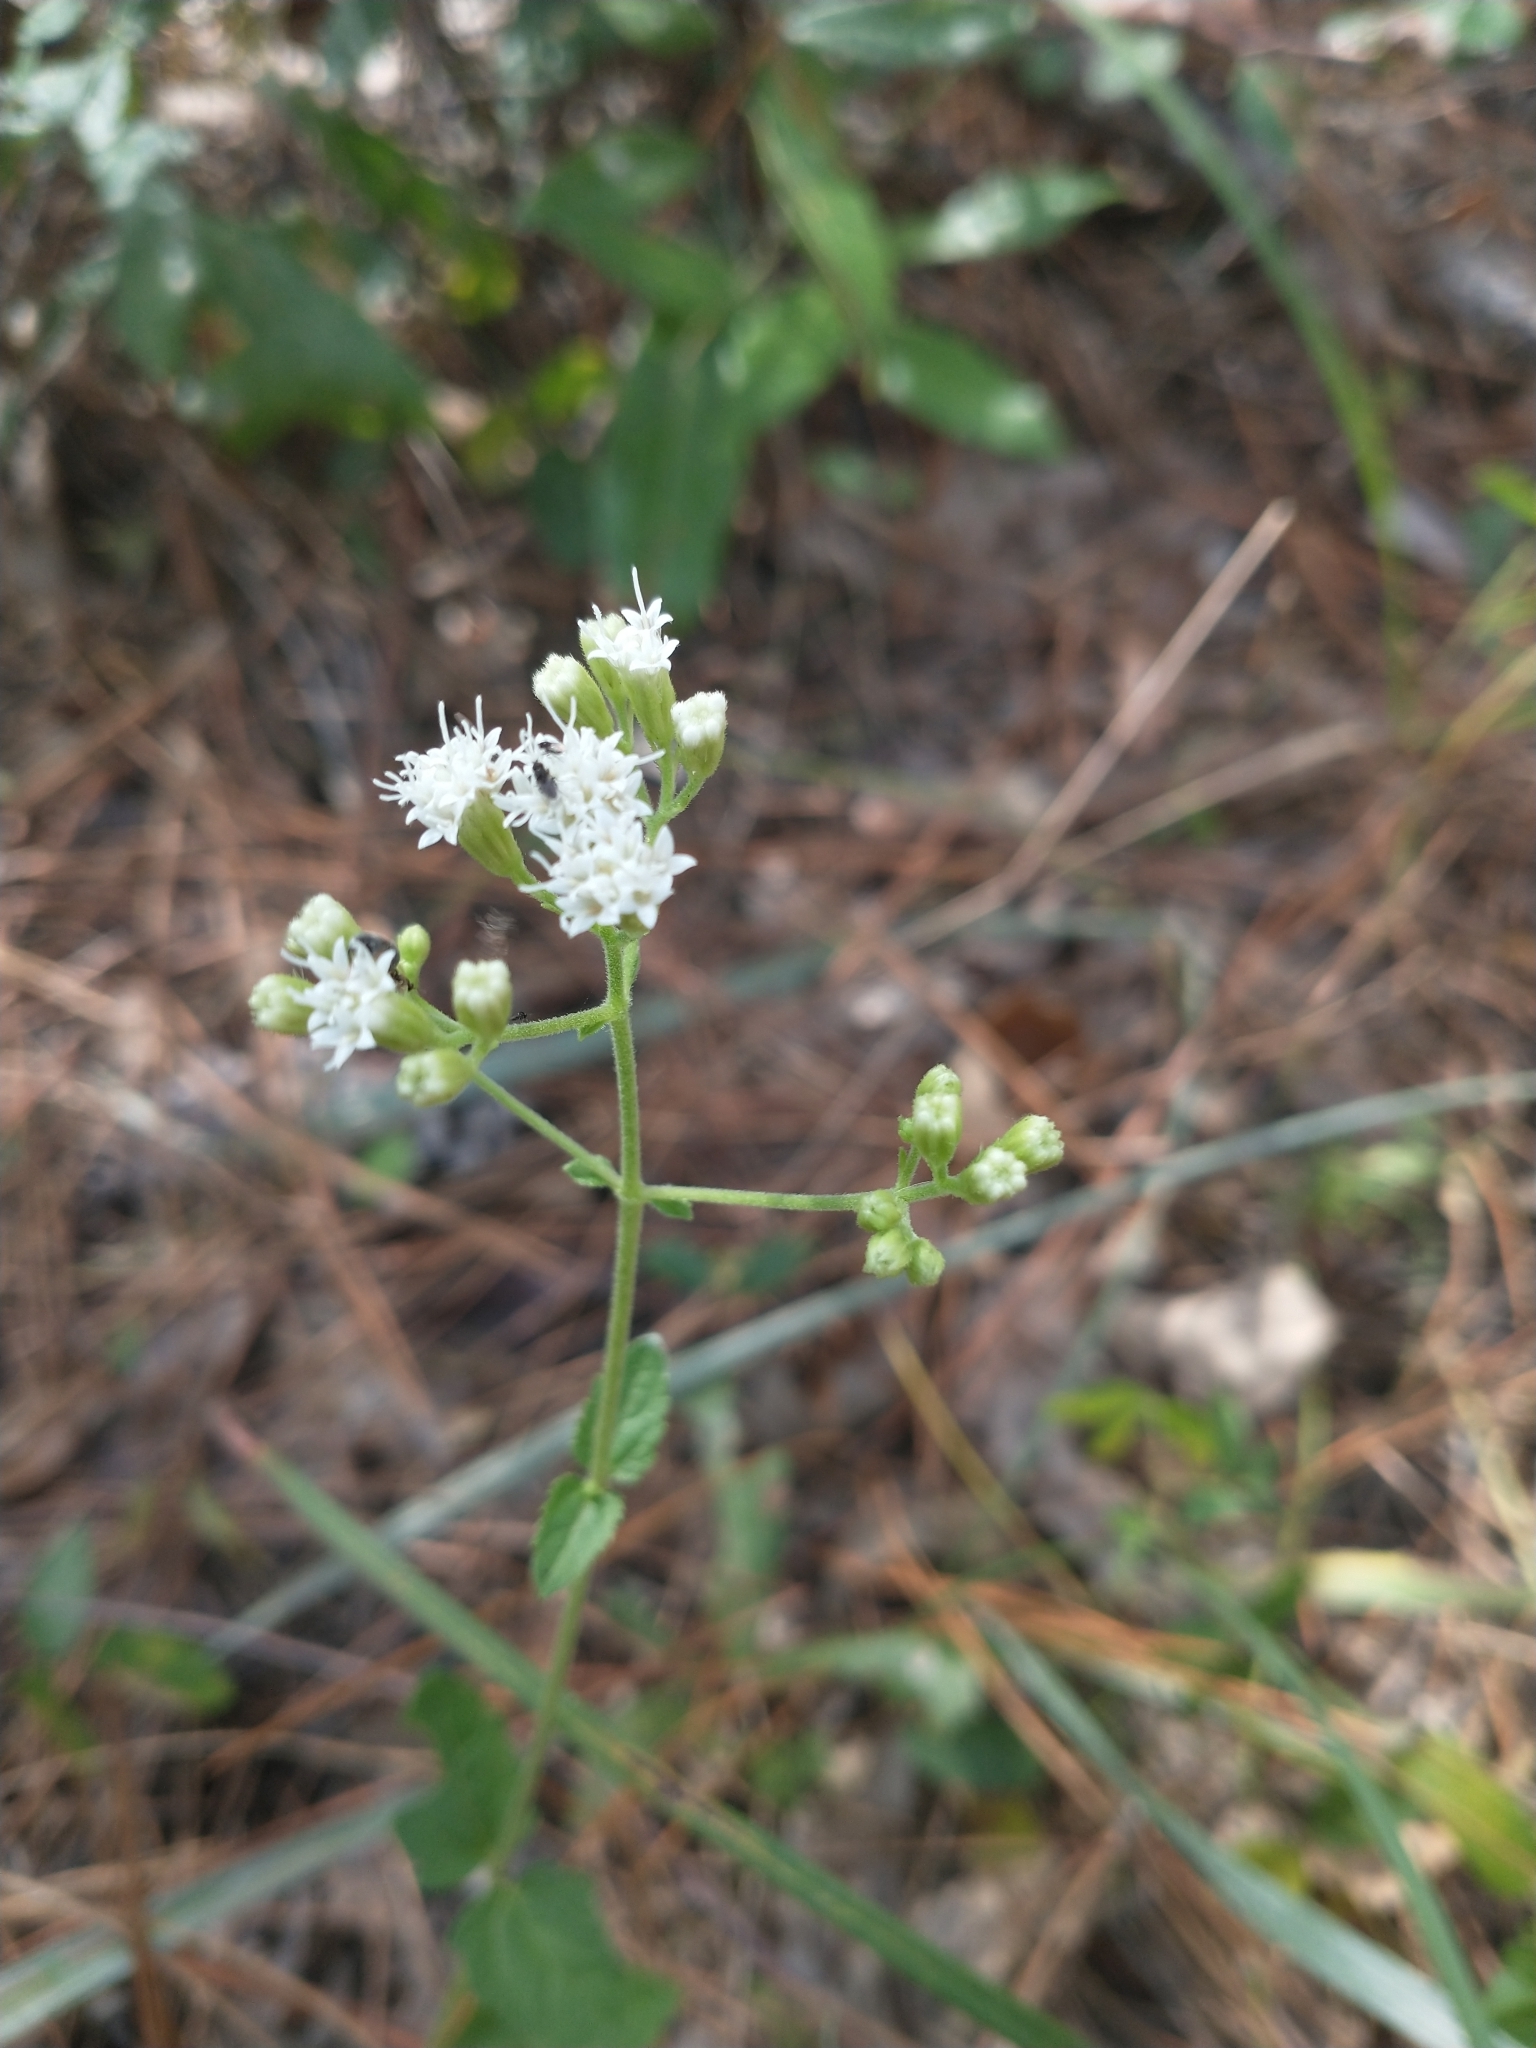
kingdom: Plantae
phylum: Tracheophyta
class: Magnoliopsida
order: Asterales
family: Asteraceae
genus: Ageratina
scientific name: Ageratina aromatica
